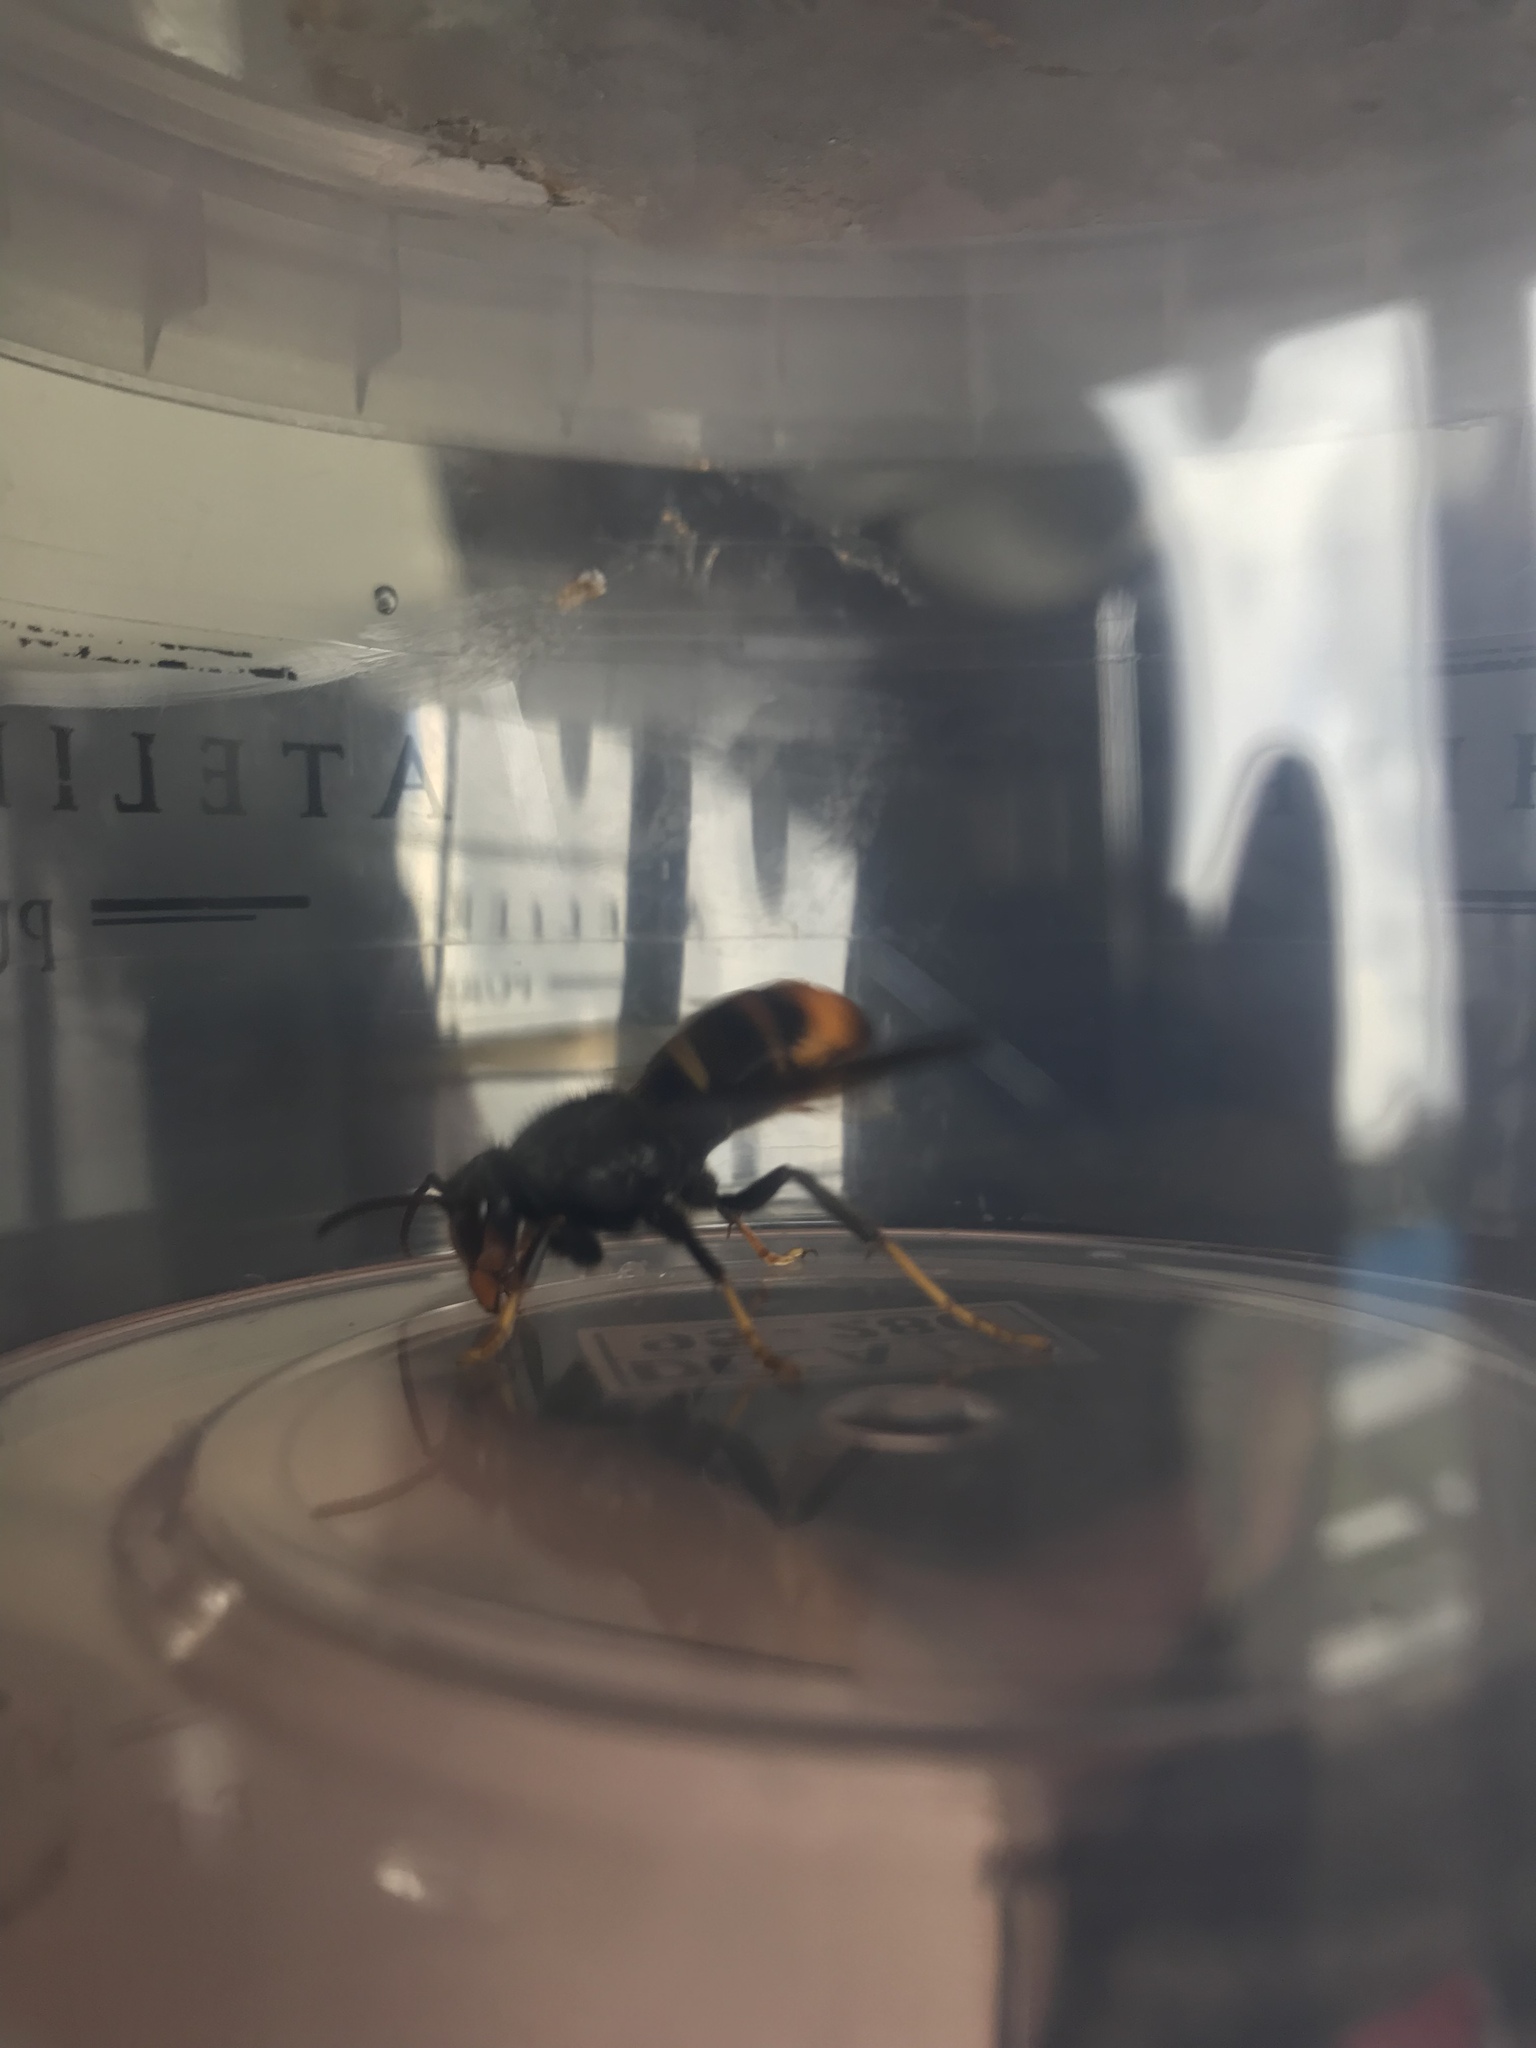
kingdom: Animalia
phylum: Arthropoda
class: Insecta
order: Hymenoptera
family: Vespidae
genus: Vespa
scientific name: Vespa velutina
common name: Asian hornet
